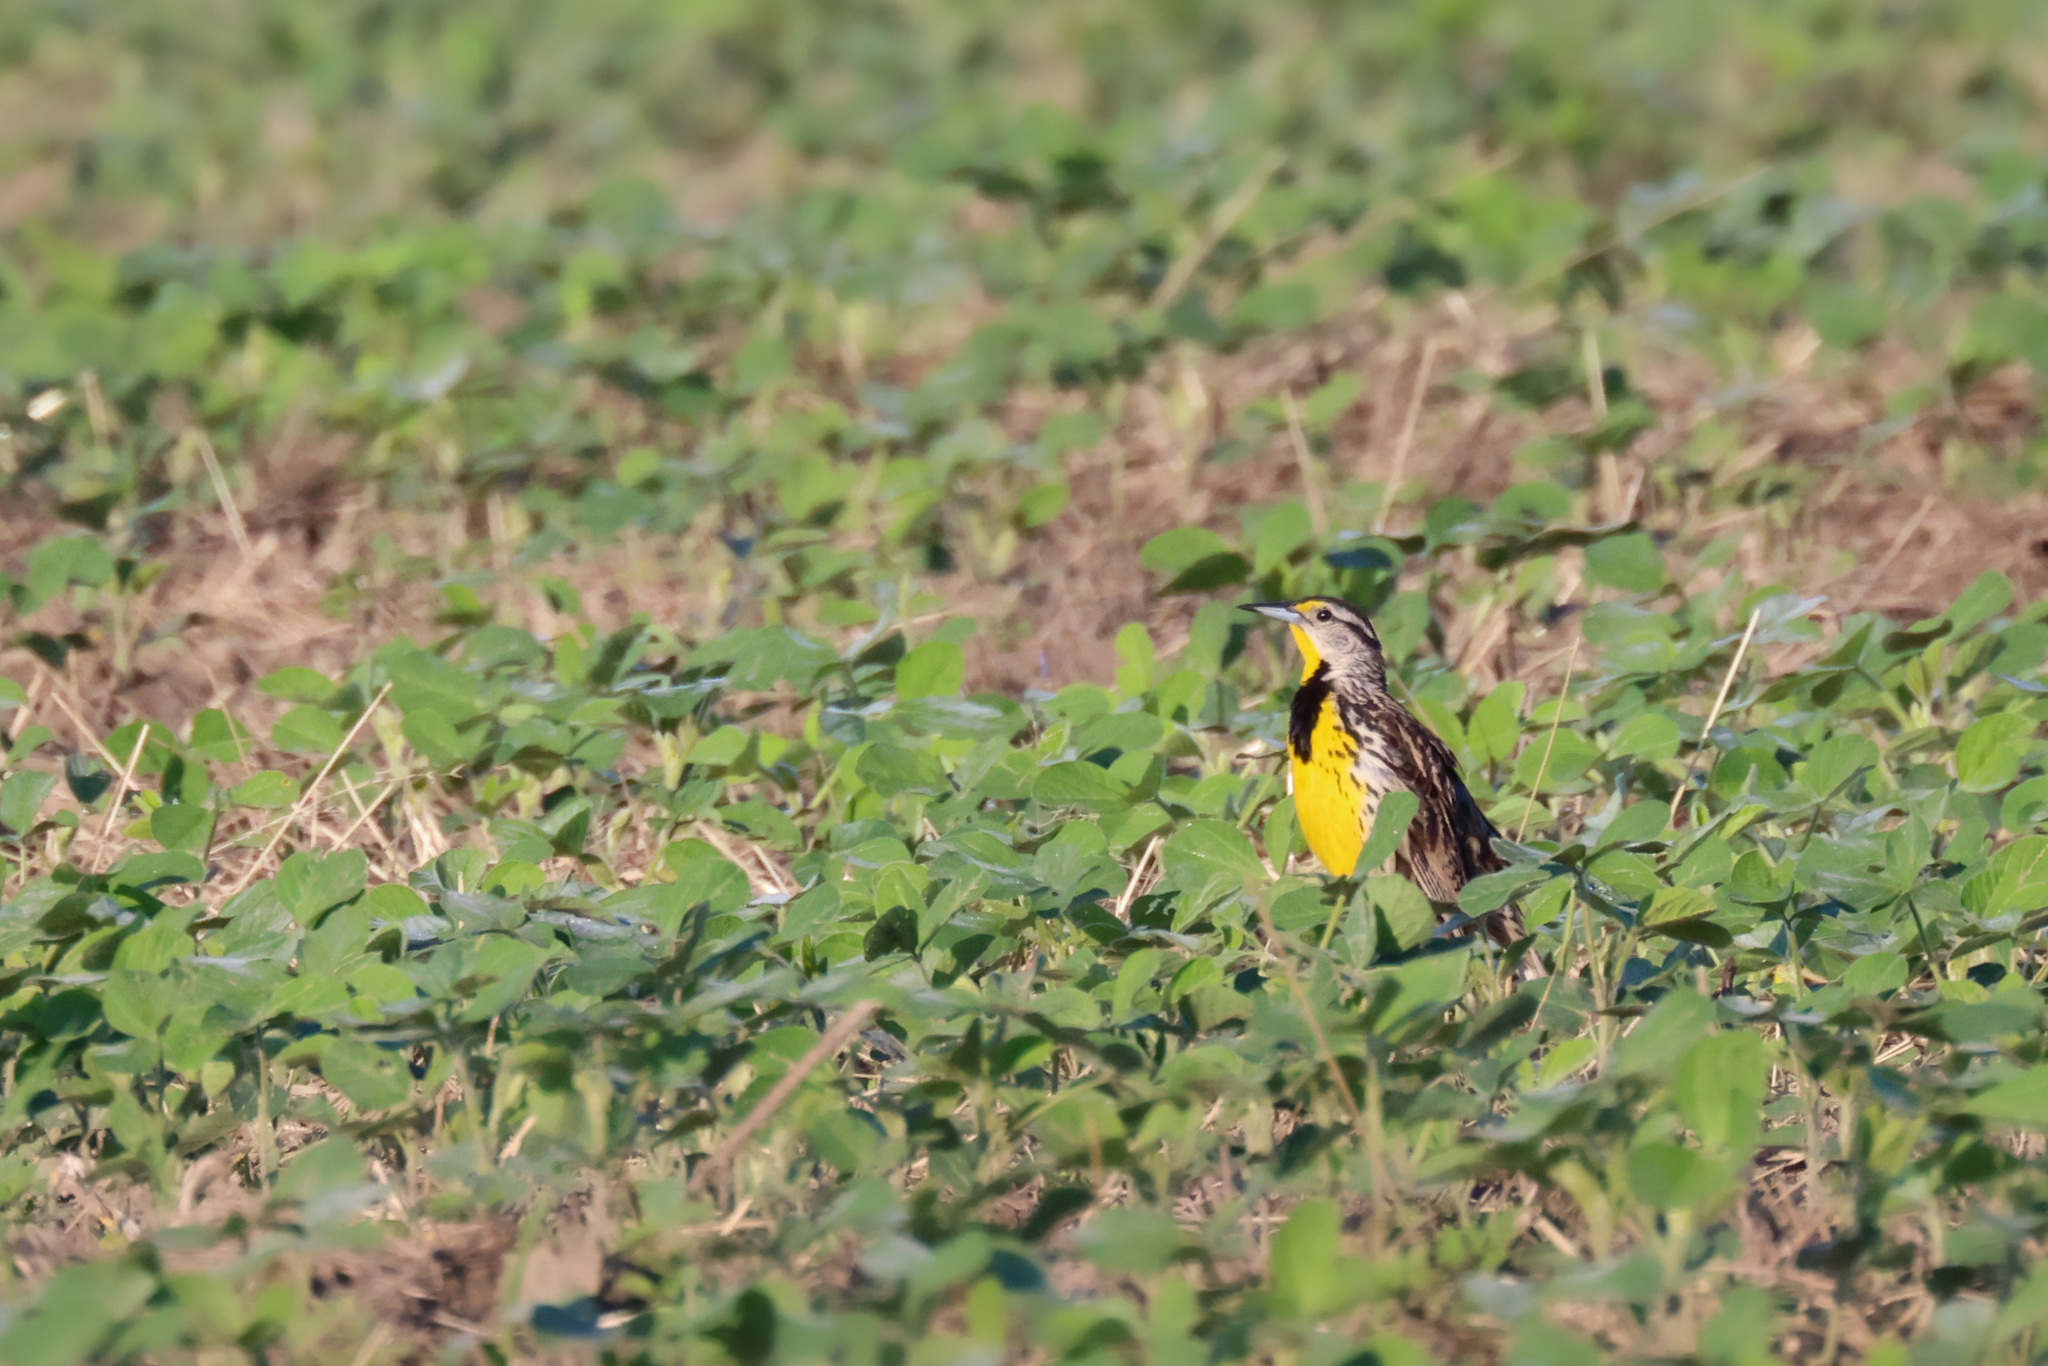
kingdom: Animalia
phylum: Chordata
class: Aves
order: Passeriformes
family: Icteridae
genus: Sturnella
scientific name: Sturnella magna
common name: Eastern meadowlark
